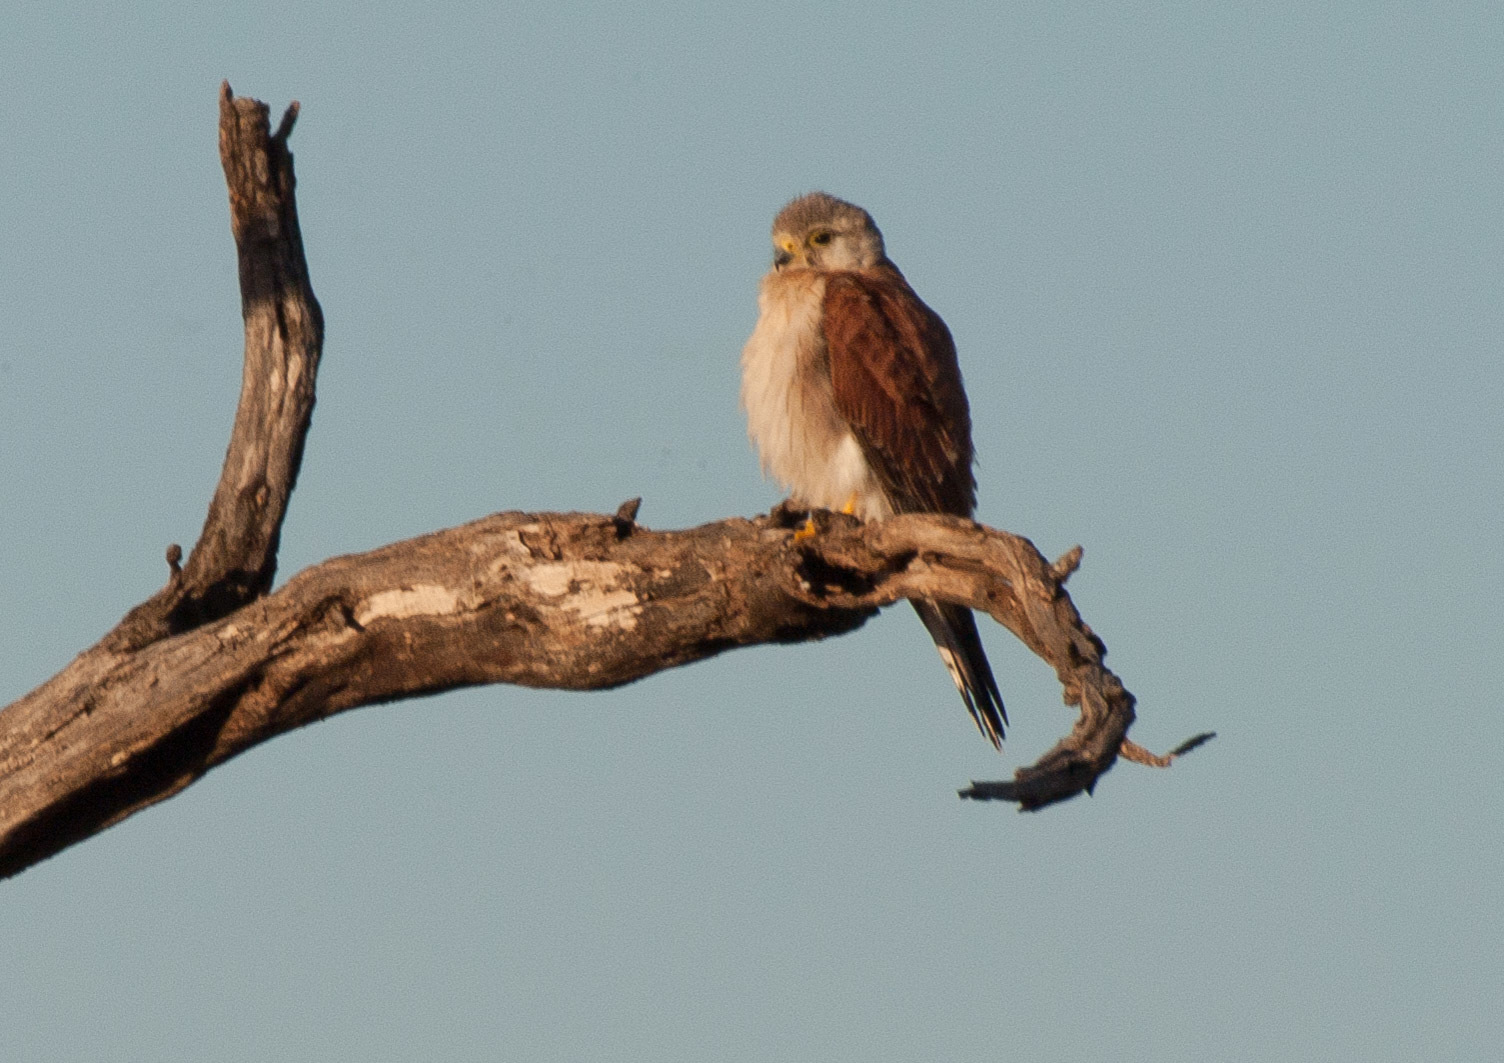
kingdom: Animalia
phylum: Chordata
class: Aves
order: Falconiformes
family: Falconidae
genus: Falco
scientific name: Falco cenchroides
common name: Nankeen kestrel
